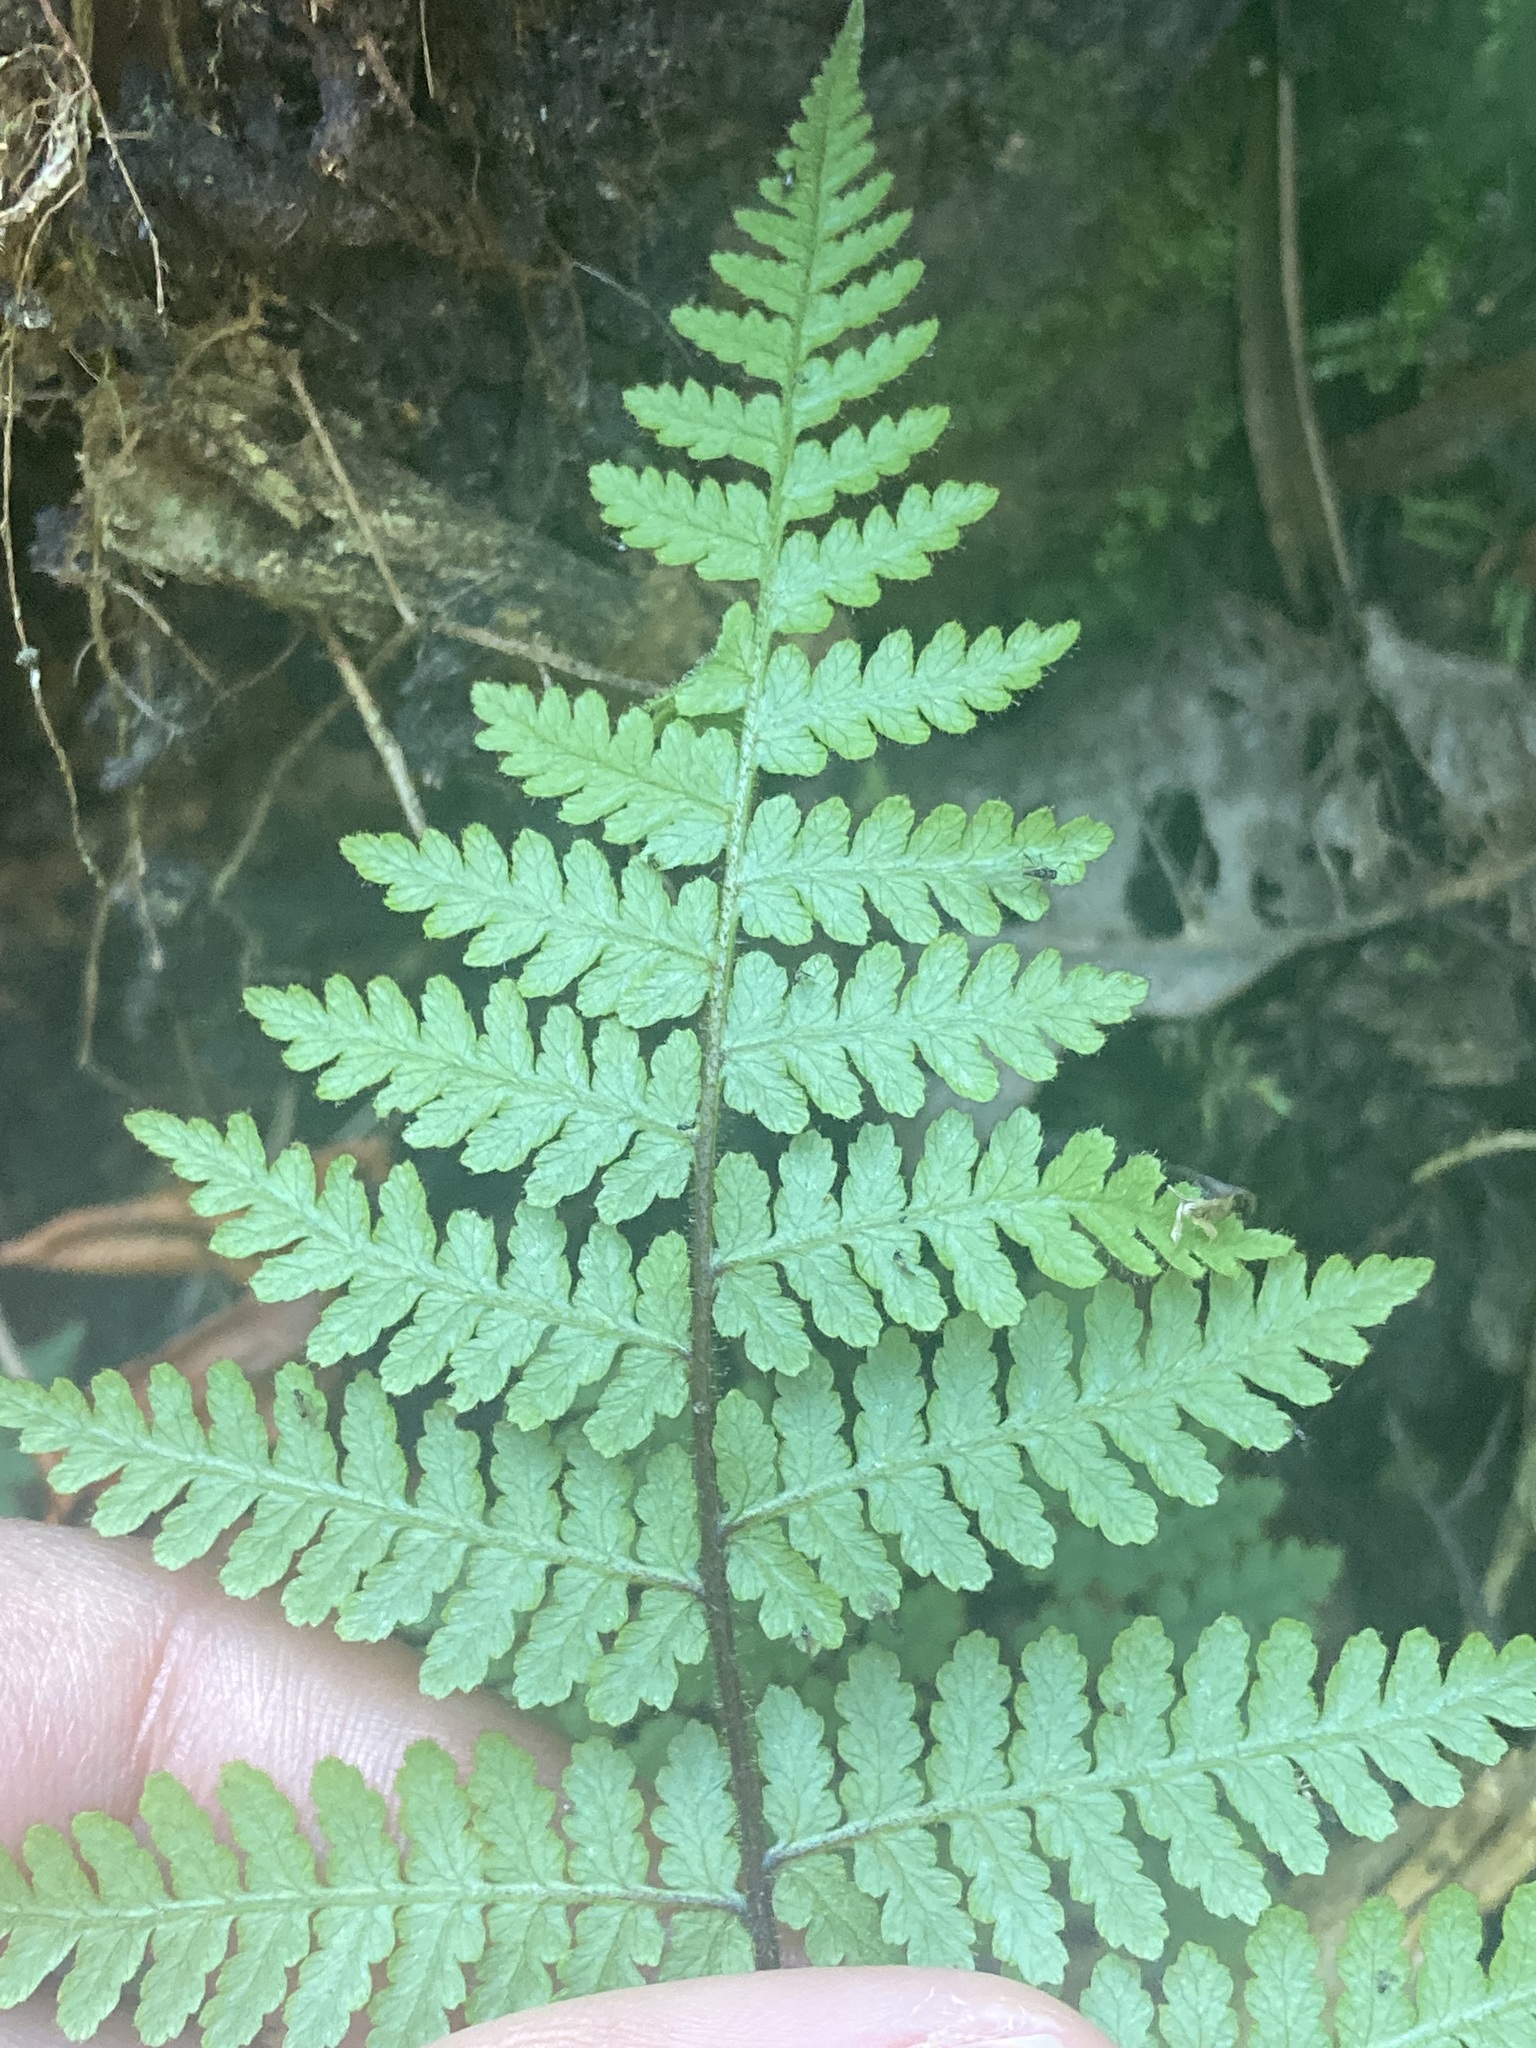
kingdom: Plantae
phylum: Tracheophyta
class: Polypodiopsida
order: Polypodiales
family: Dennstaedtiaceae
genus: Hypolepis
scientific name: Hypolepis rugosula
